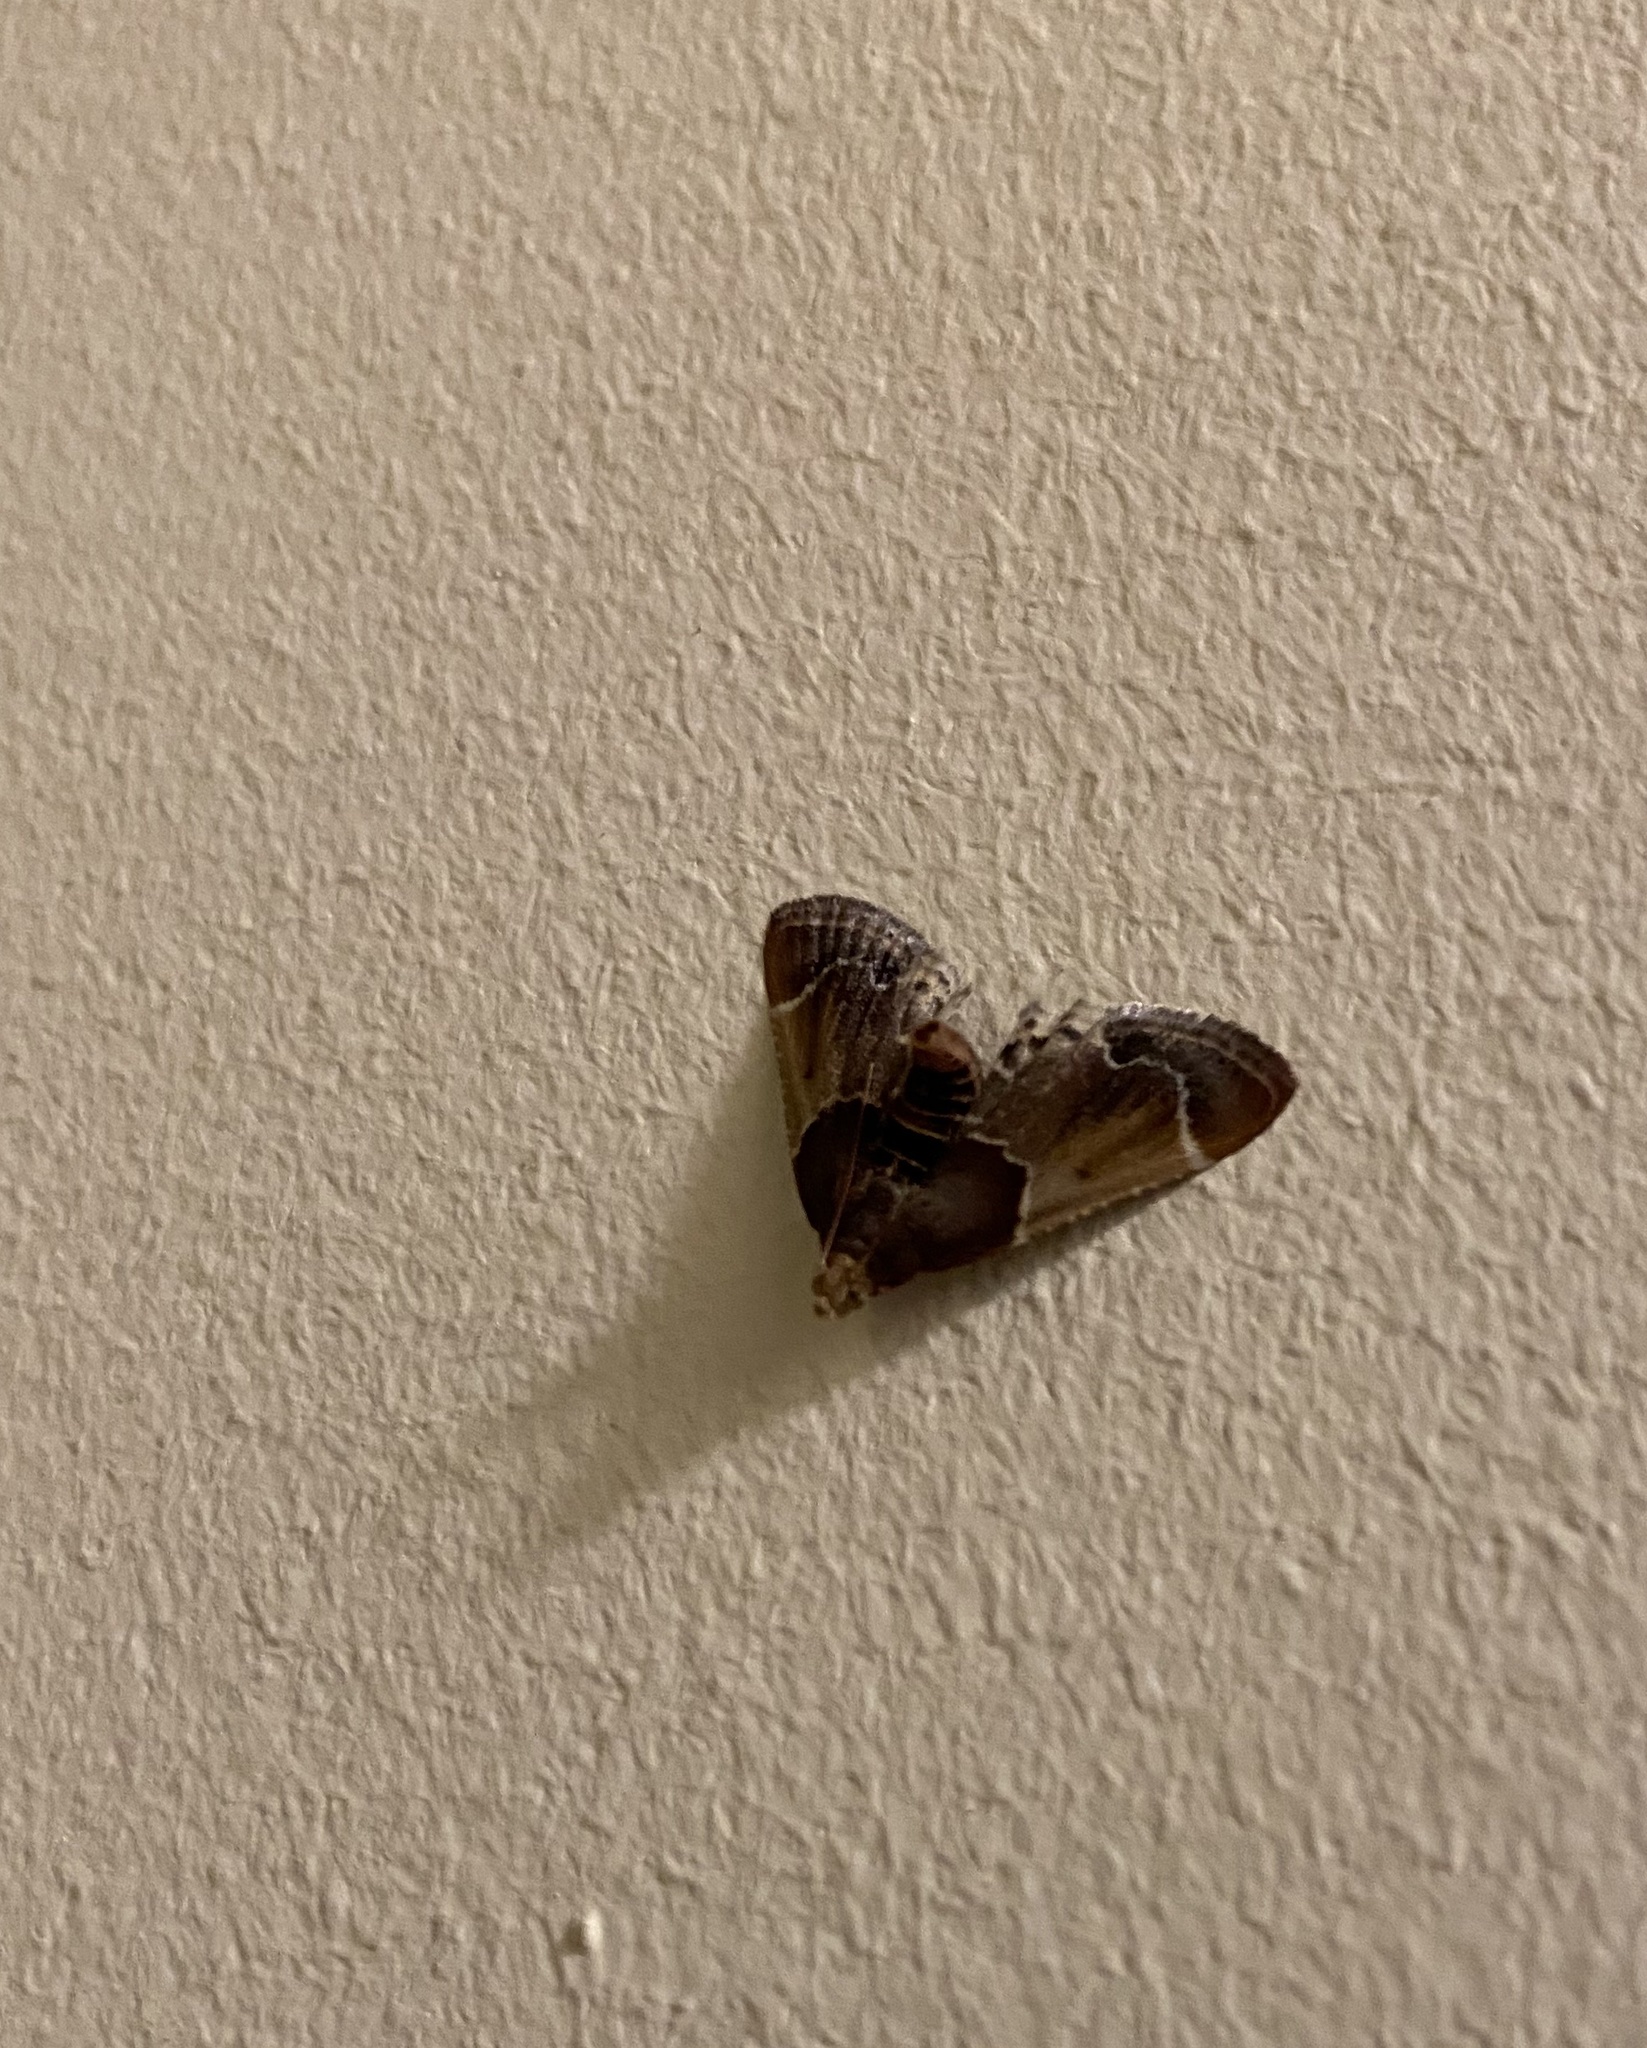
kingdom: Animalia
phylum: Arthropoda
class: Insecta
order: Lepidoptera
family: Pyralidae
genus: Pyralis
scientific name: Pyralis farinalis
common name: Meal moth
